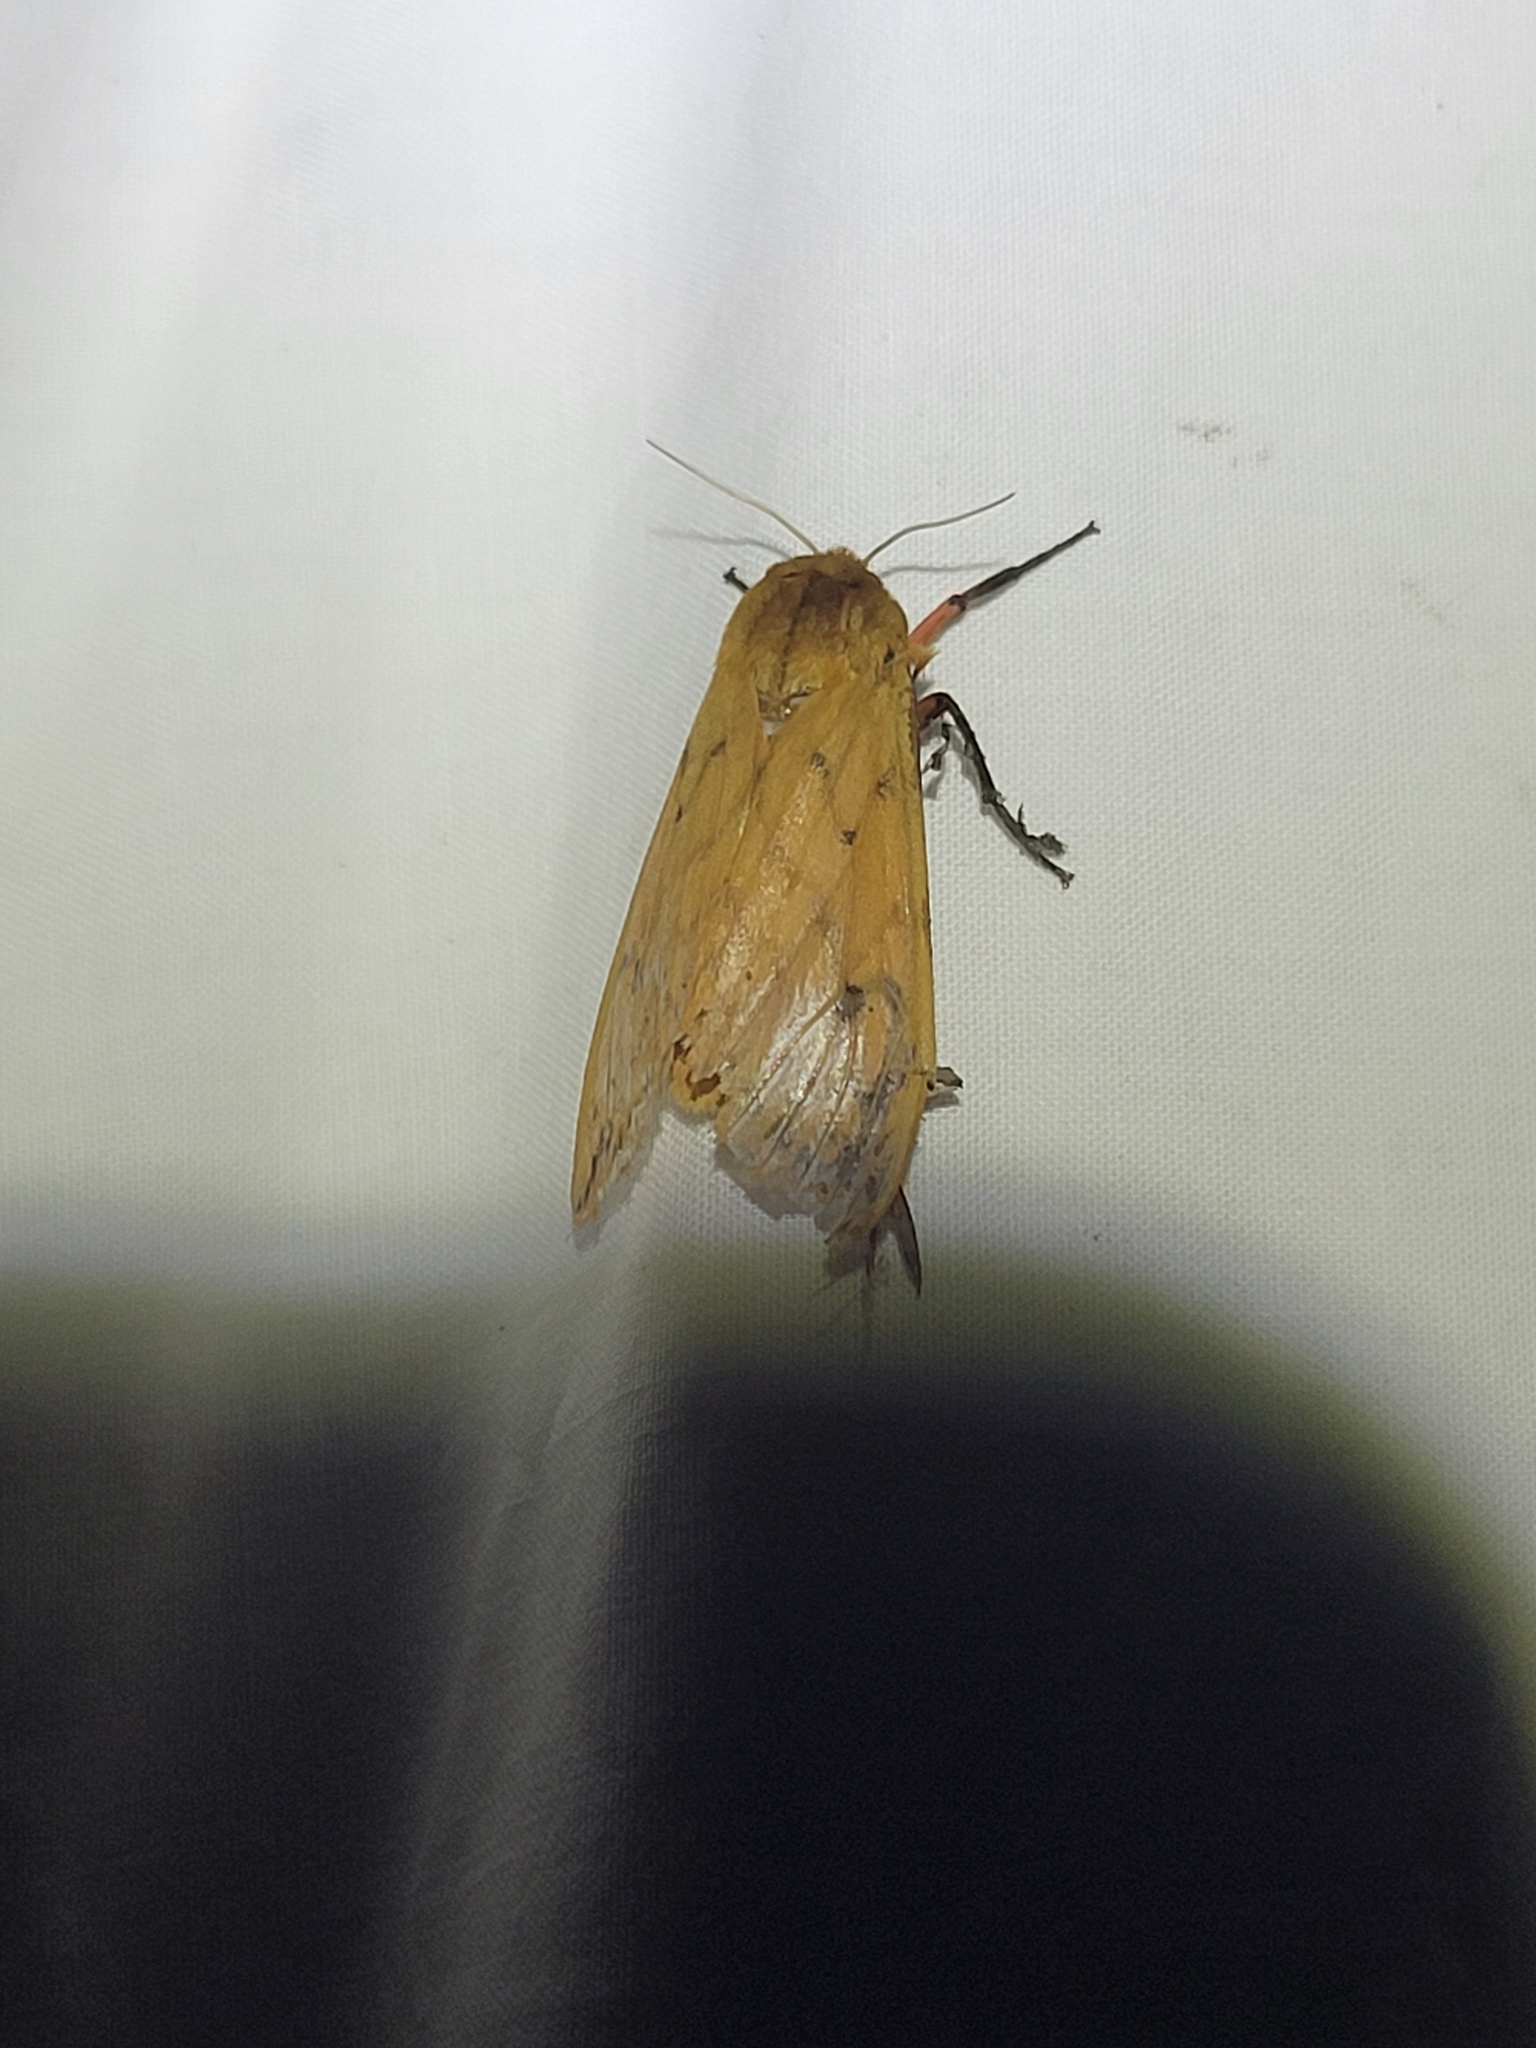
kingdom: Animalia
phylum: Arthropoda
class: Insecta
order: Lepidoptera
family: Erebidae
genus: Pyrrharctia
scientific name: Pyrrharctia isabella
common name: Isabella tiger moth
